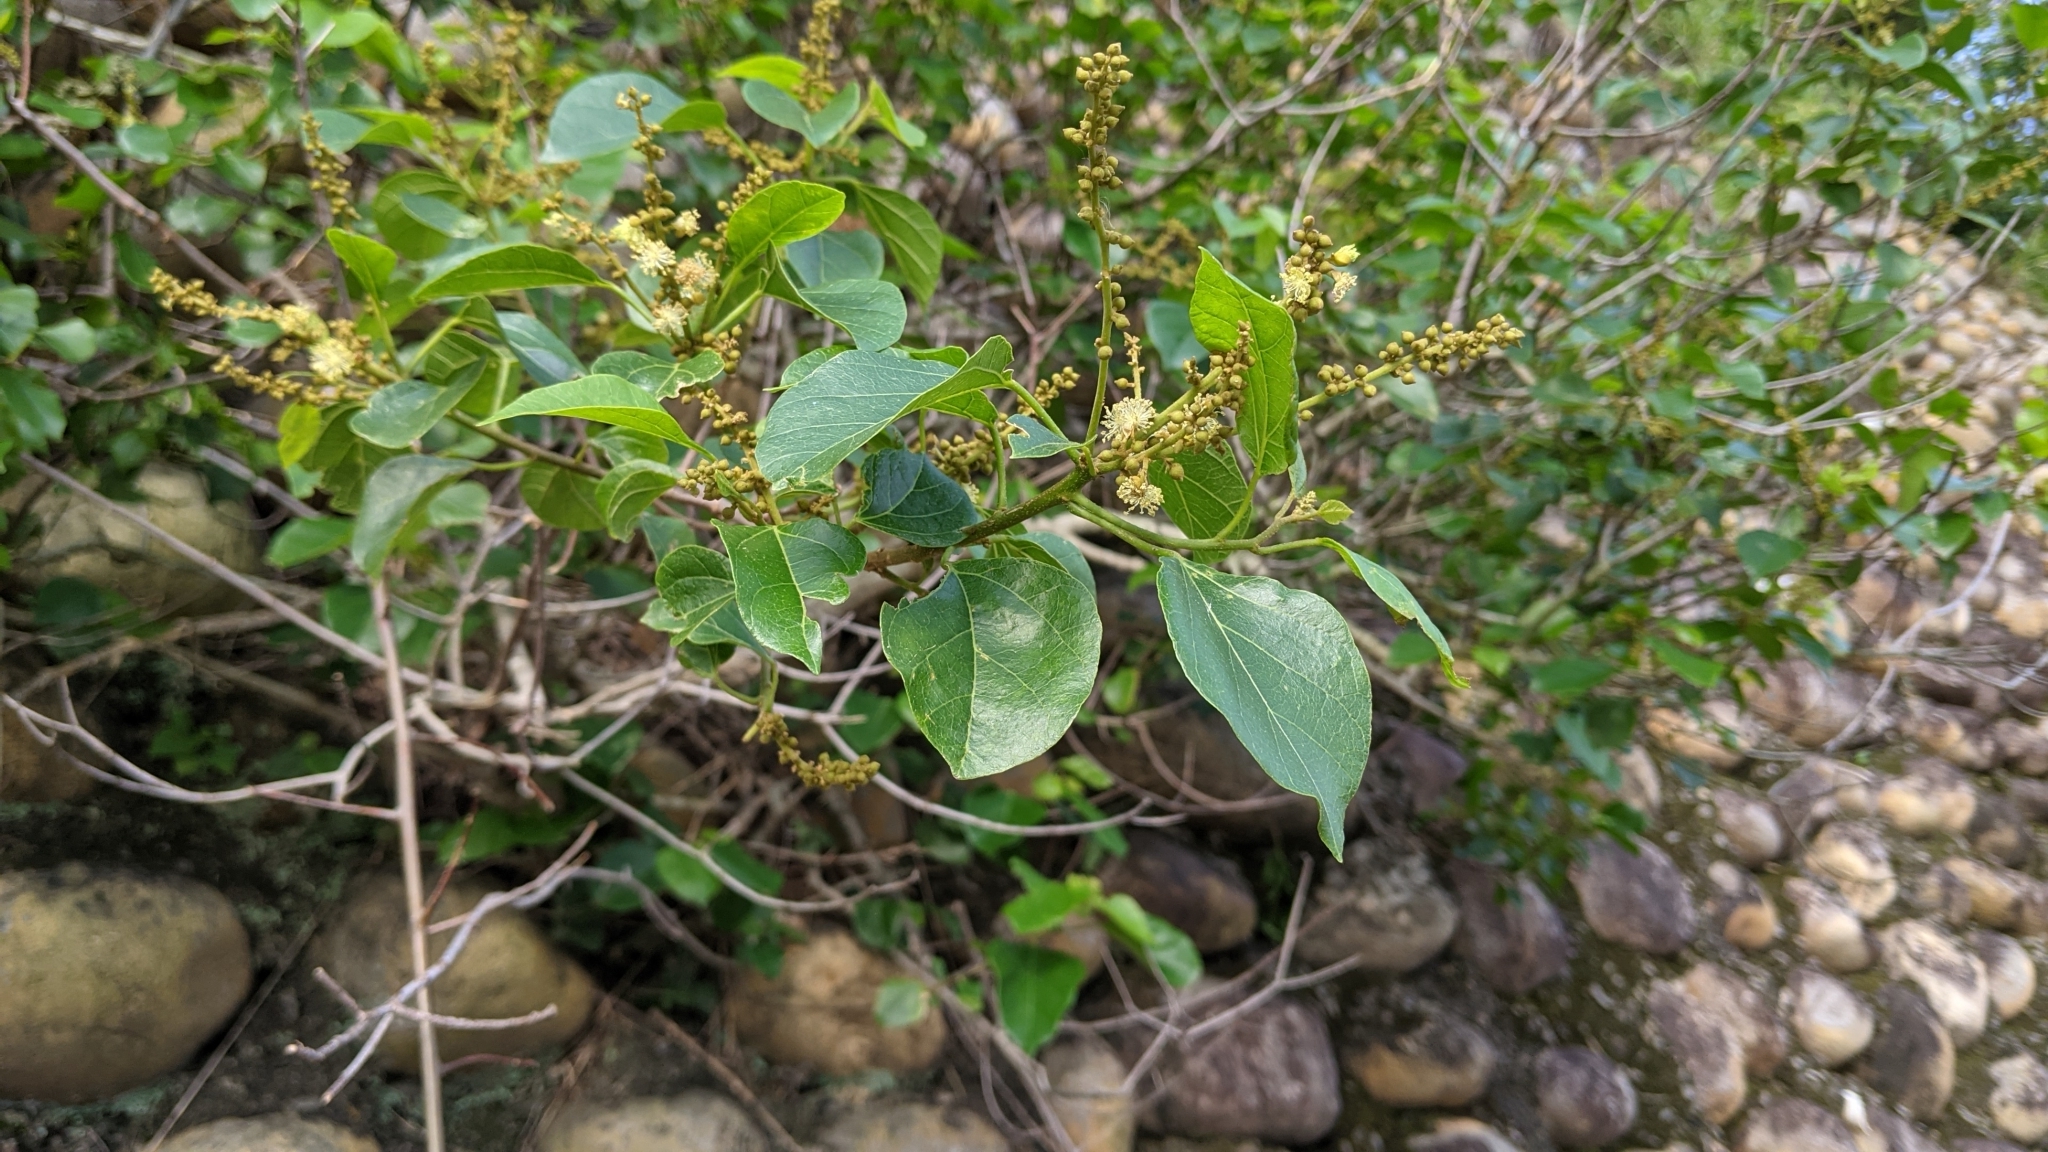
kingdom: Plantae
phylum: Tracheophyta
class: Magnoliopsida
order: Malpighiales
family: Euphorbiaceae
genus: Mallotus
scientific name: Mallotus repandus
